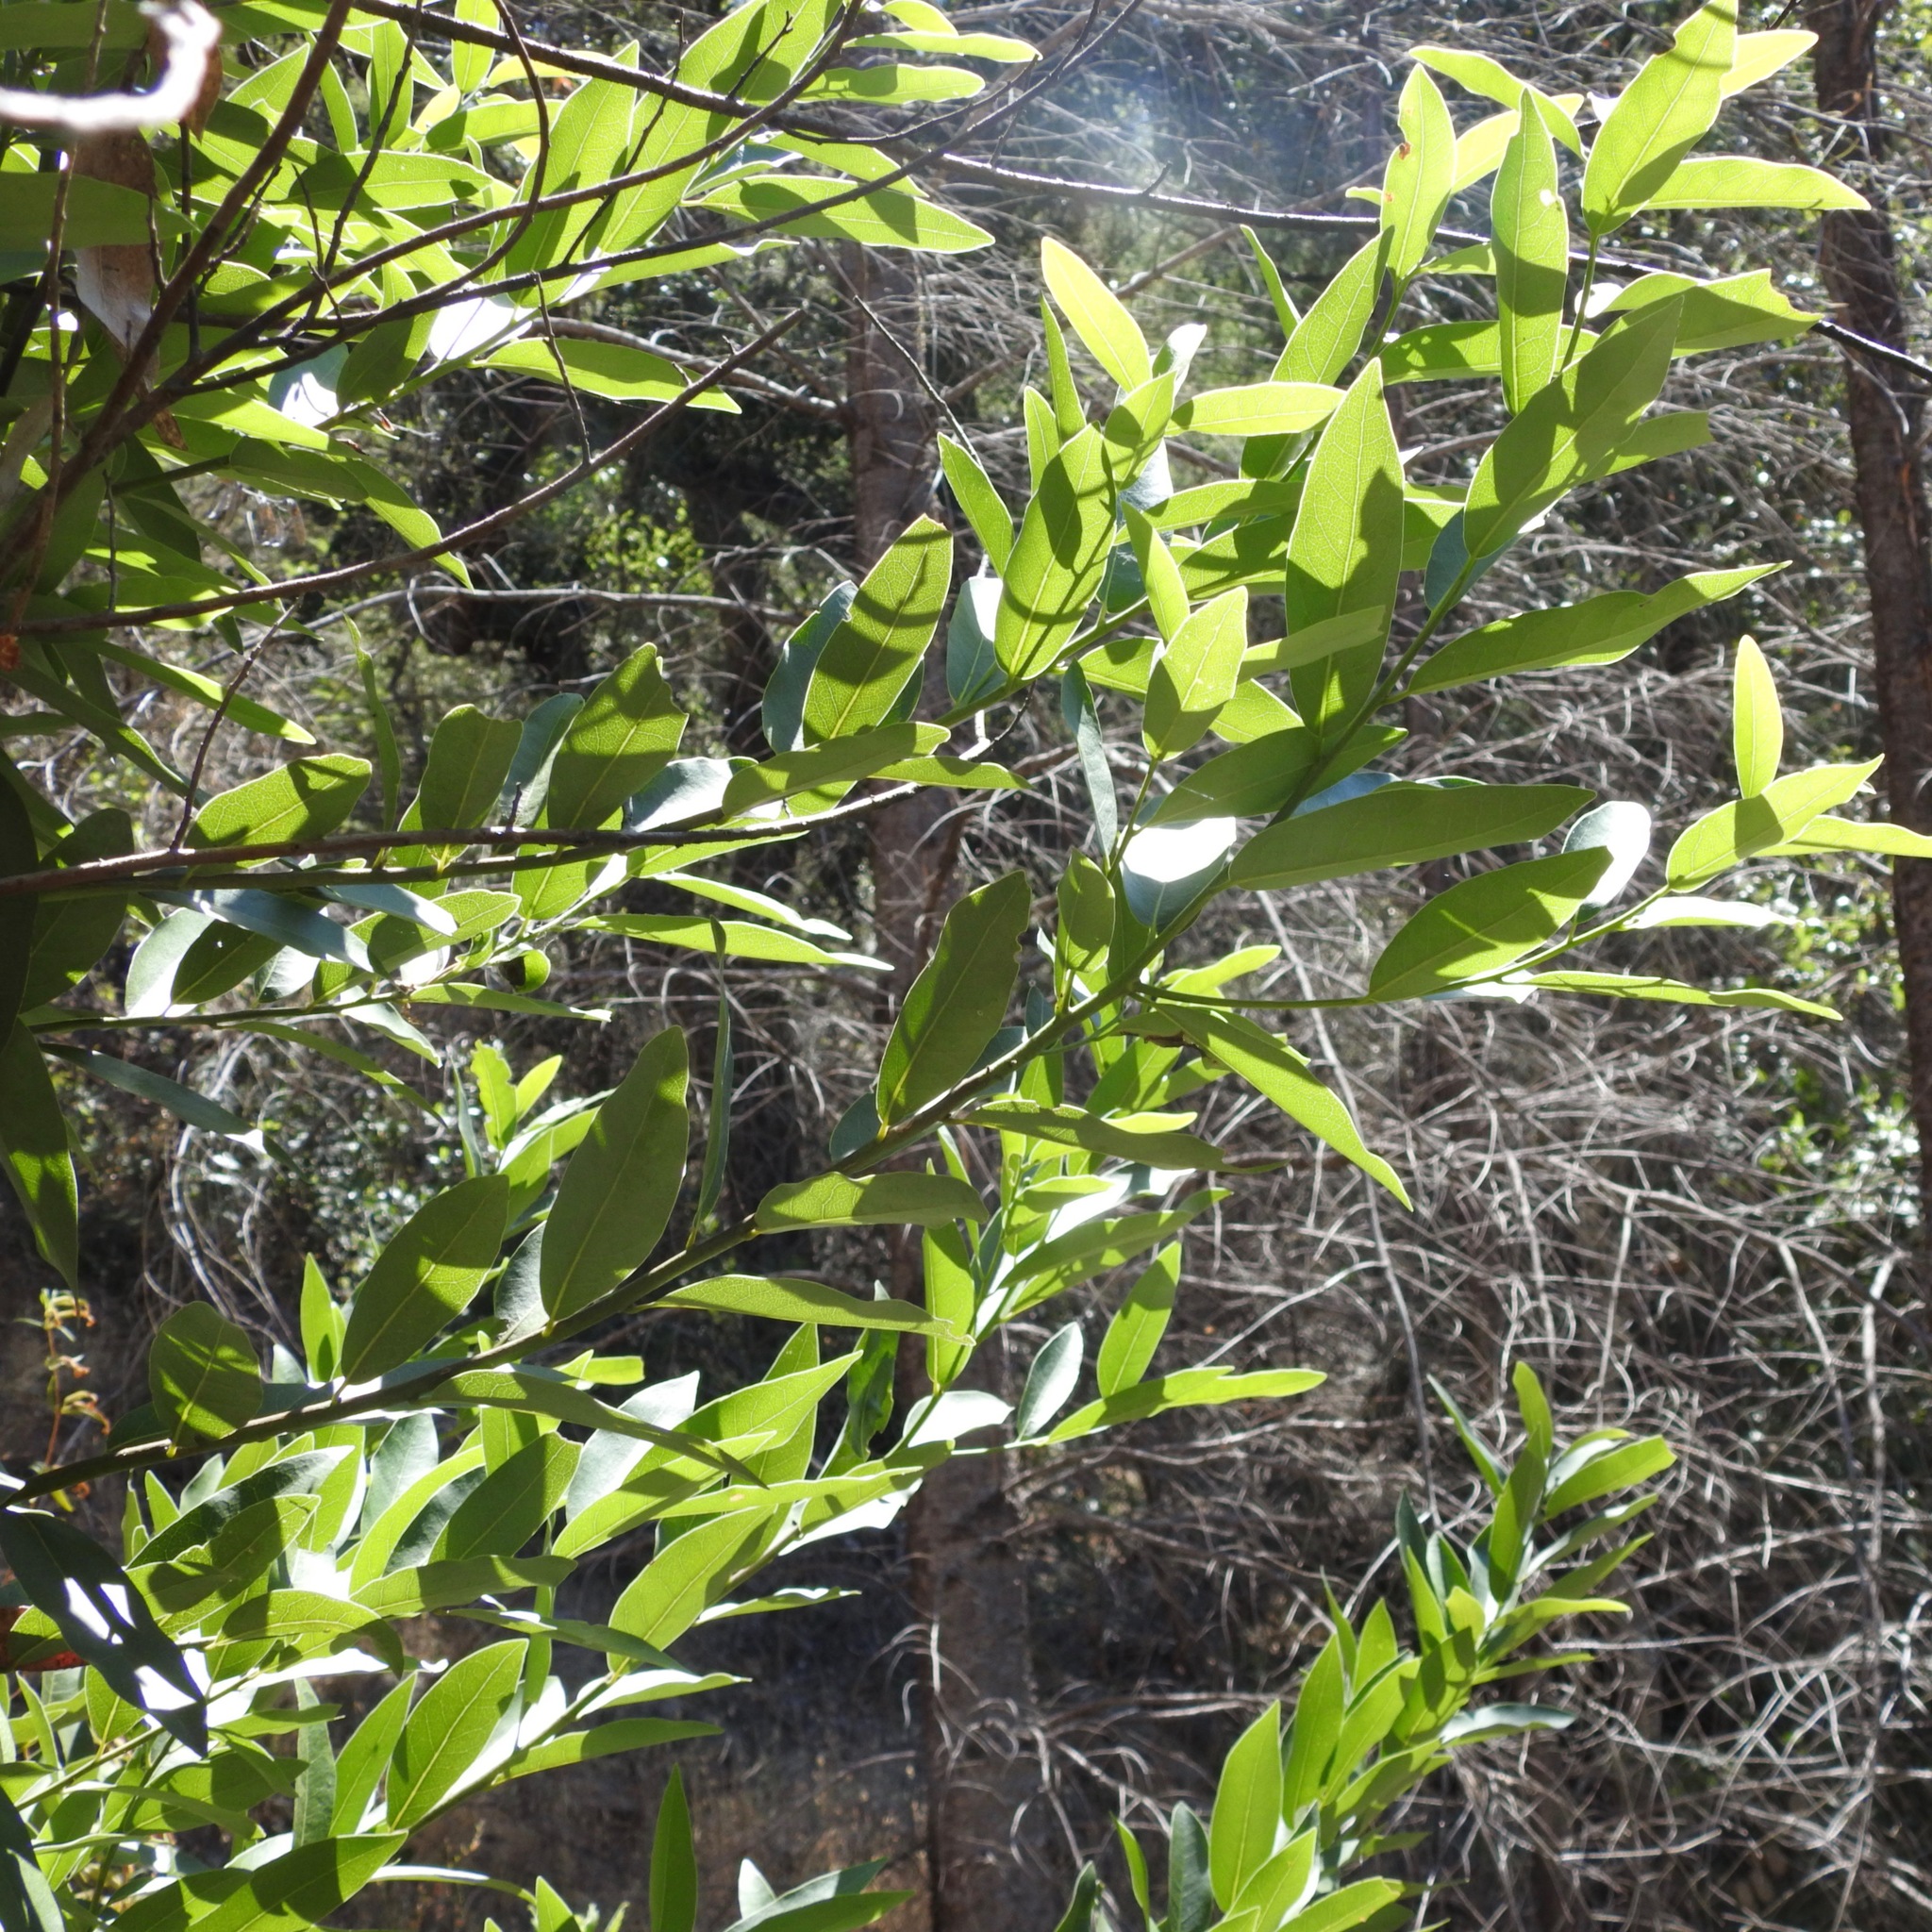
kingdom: Plantae
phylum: Tracheophyta
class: Magnoliopsida
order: Laurales
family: Lauraceae
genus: Umbellularia
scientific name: Umbellularia californica
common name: California bay
